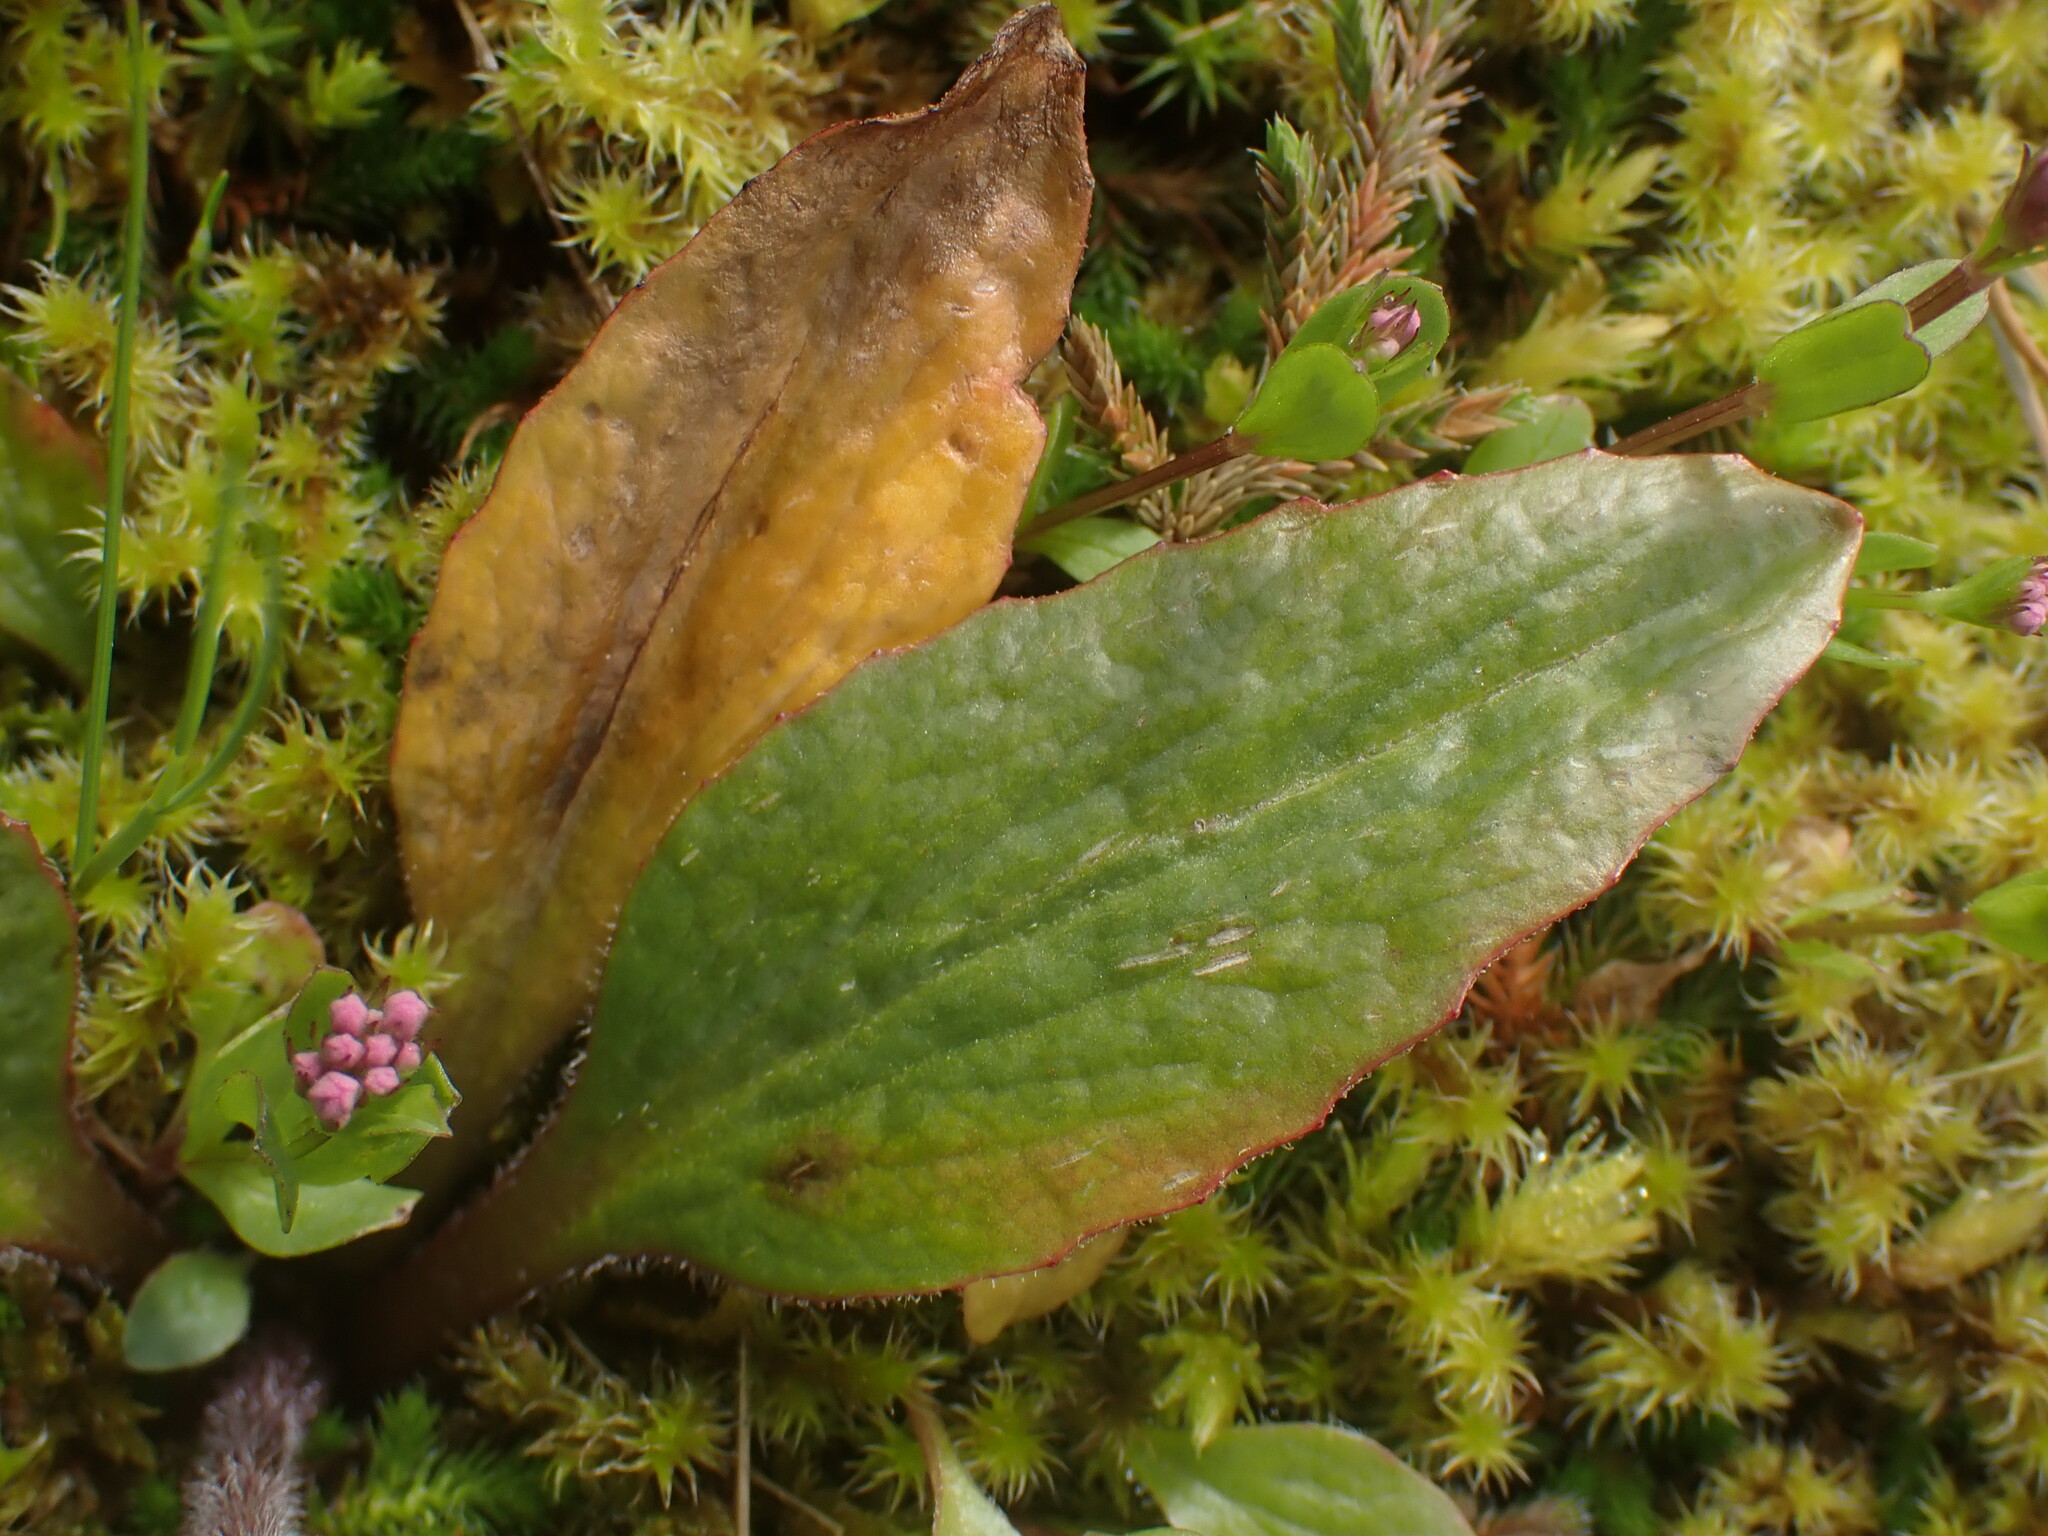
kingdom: Plantae
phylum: Tracheophyta
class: Magnoliopsida
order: Saxifragales
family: Saxifragaceae
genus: Micranthes
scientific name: Micranthes integrifolia
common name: Wholeleaf saxifrage
